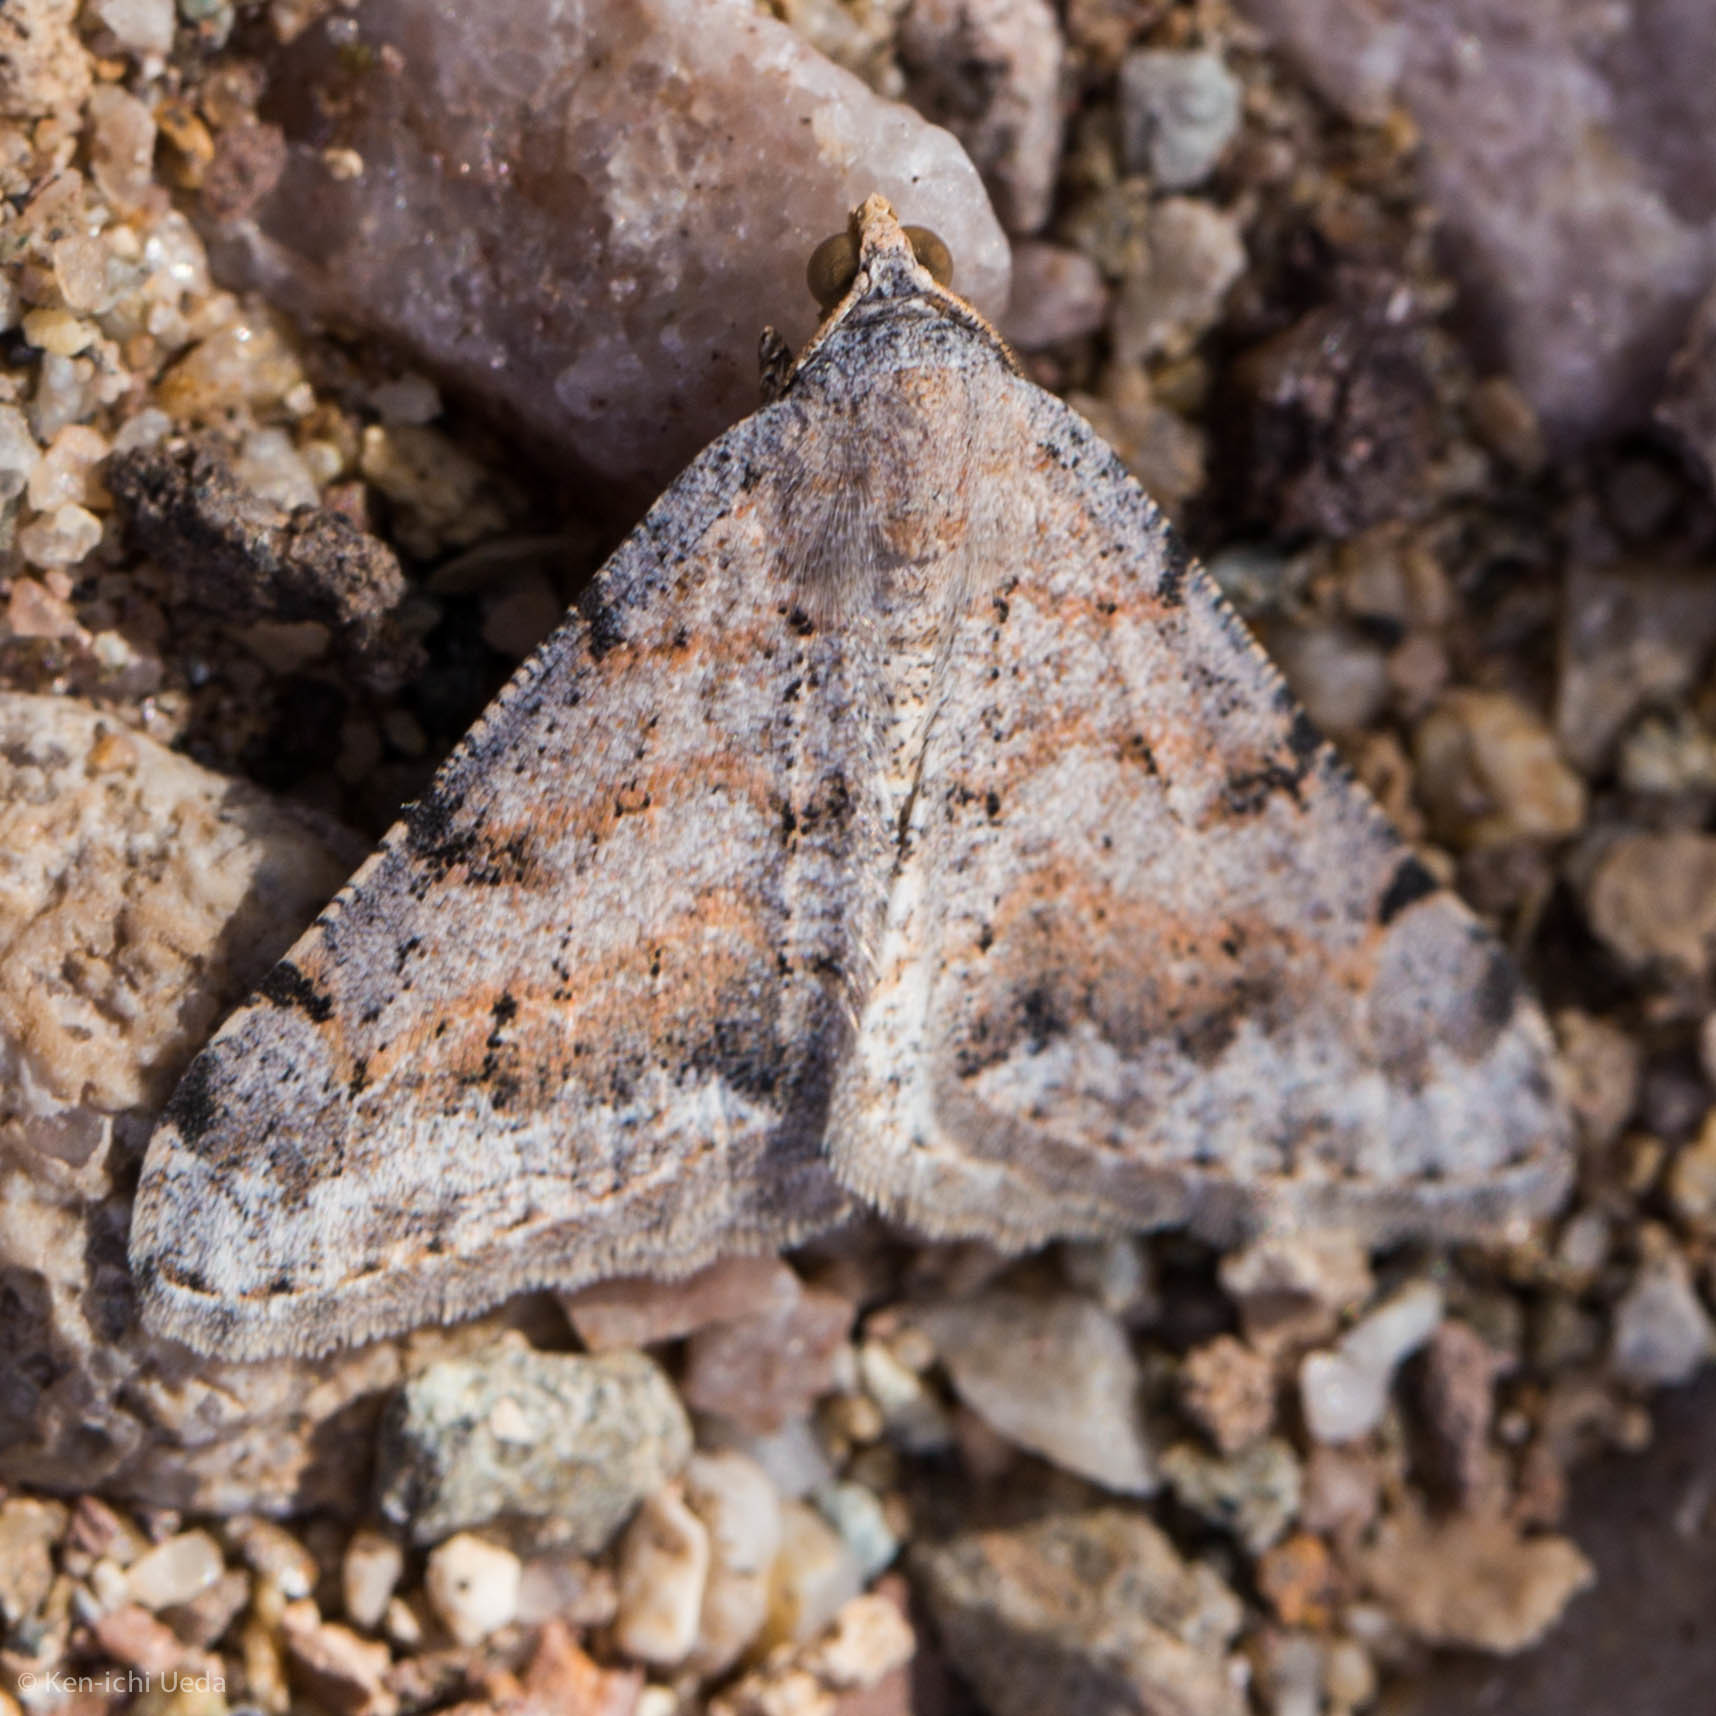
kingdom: Animalia
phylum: Arthropoda
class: Insecta
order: Lepidoptera
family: Geometridae
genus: Digrammia
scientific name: Digrammia colorata
